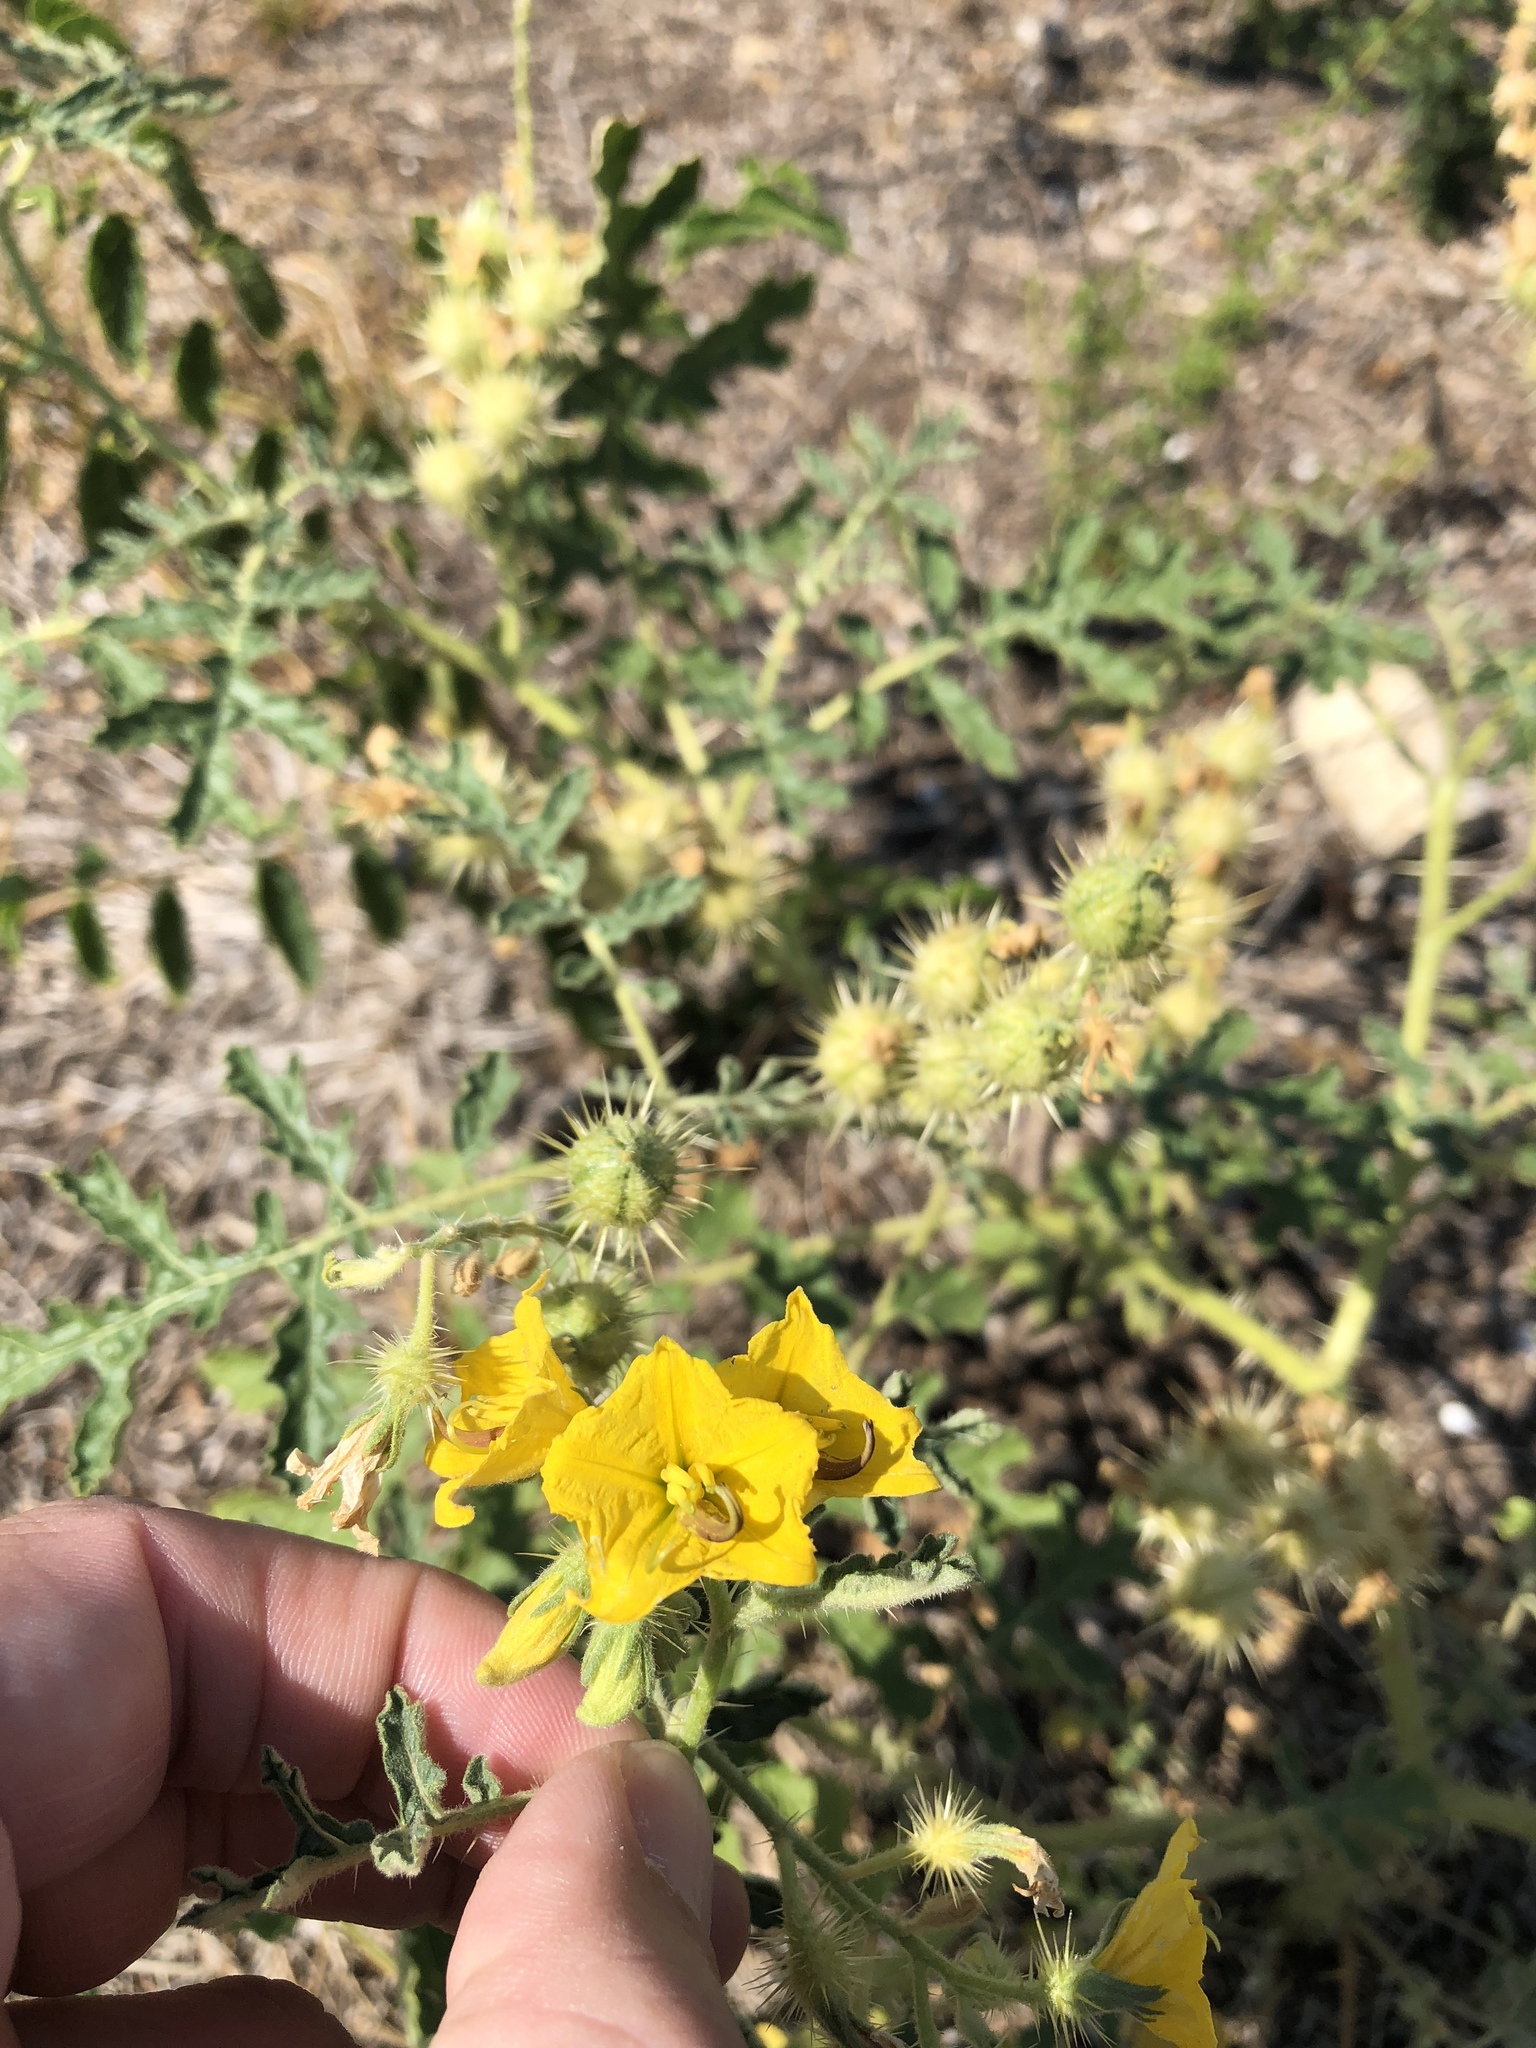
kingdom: Plantae
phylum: Tracheophyta
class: Magnoliopsida
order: Solanales
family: Solanaceae
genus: Solanum
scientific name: Solanum angustifolium
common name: Buffalobur nightshade
